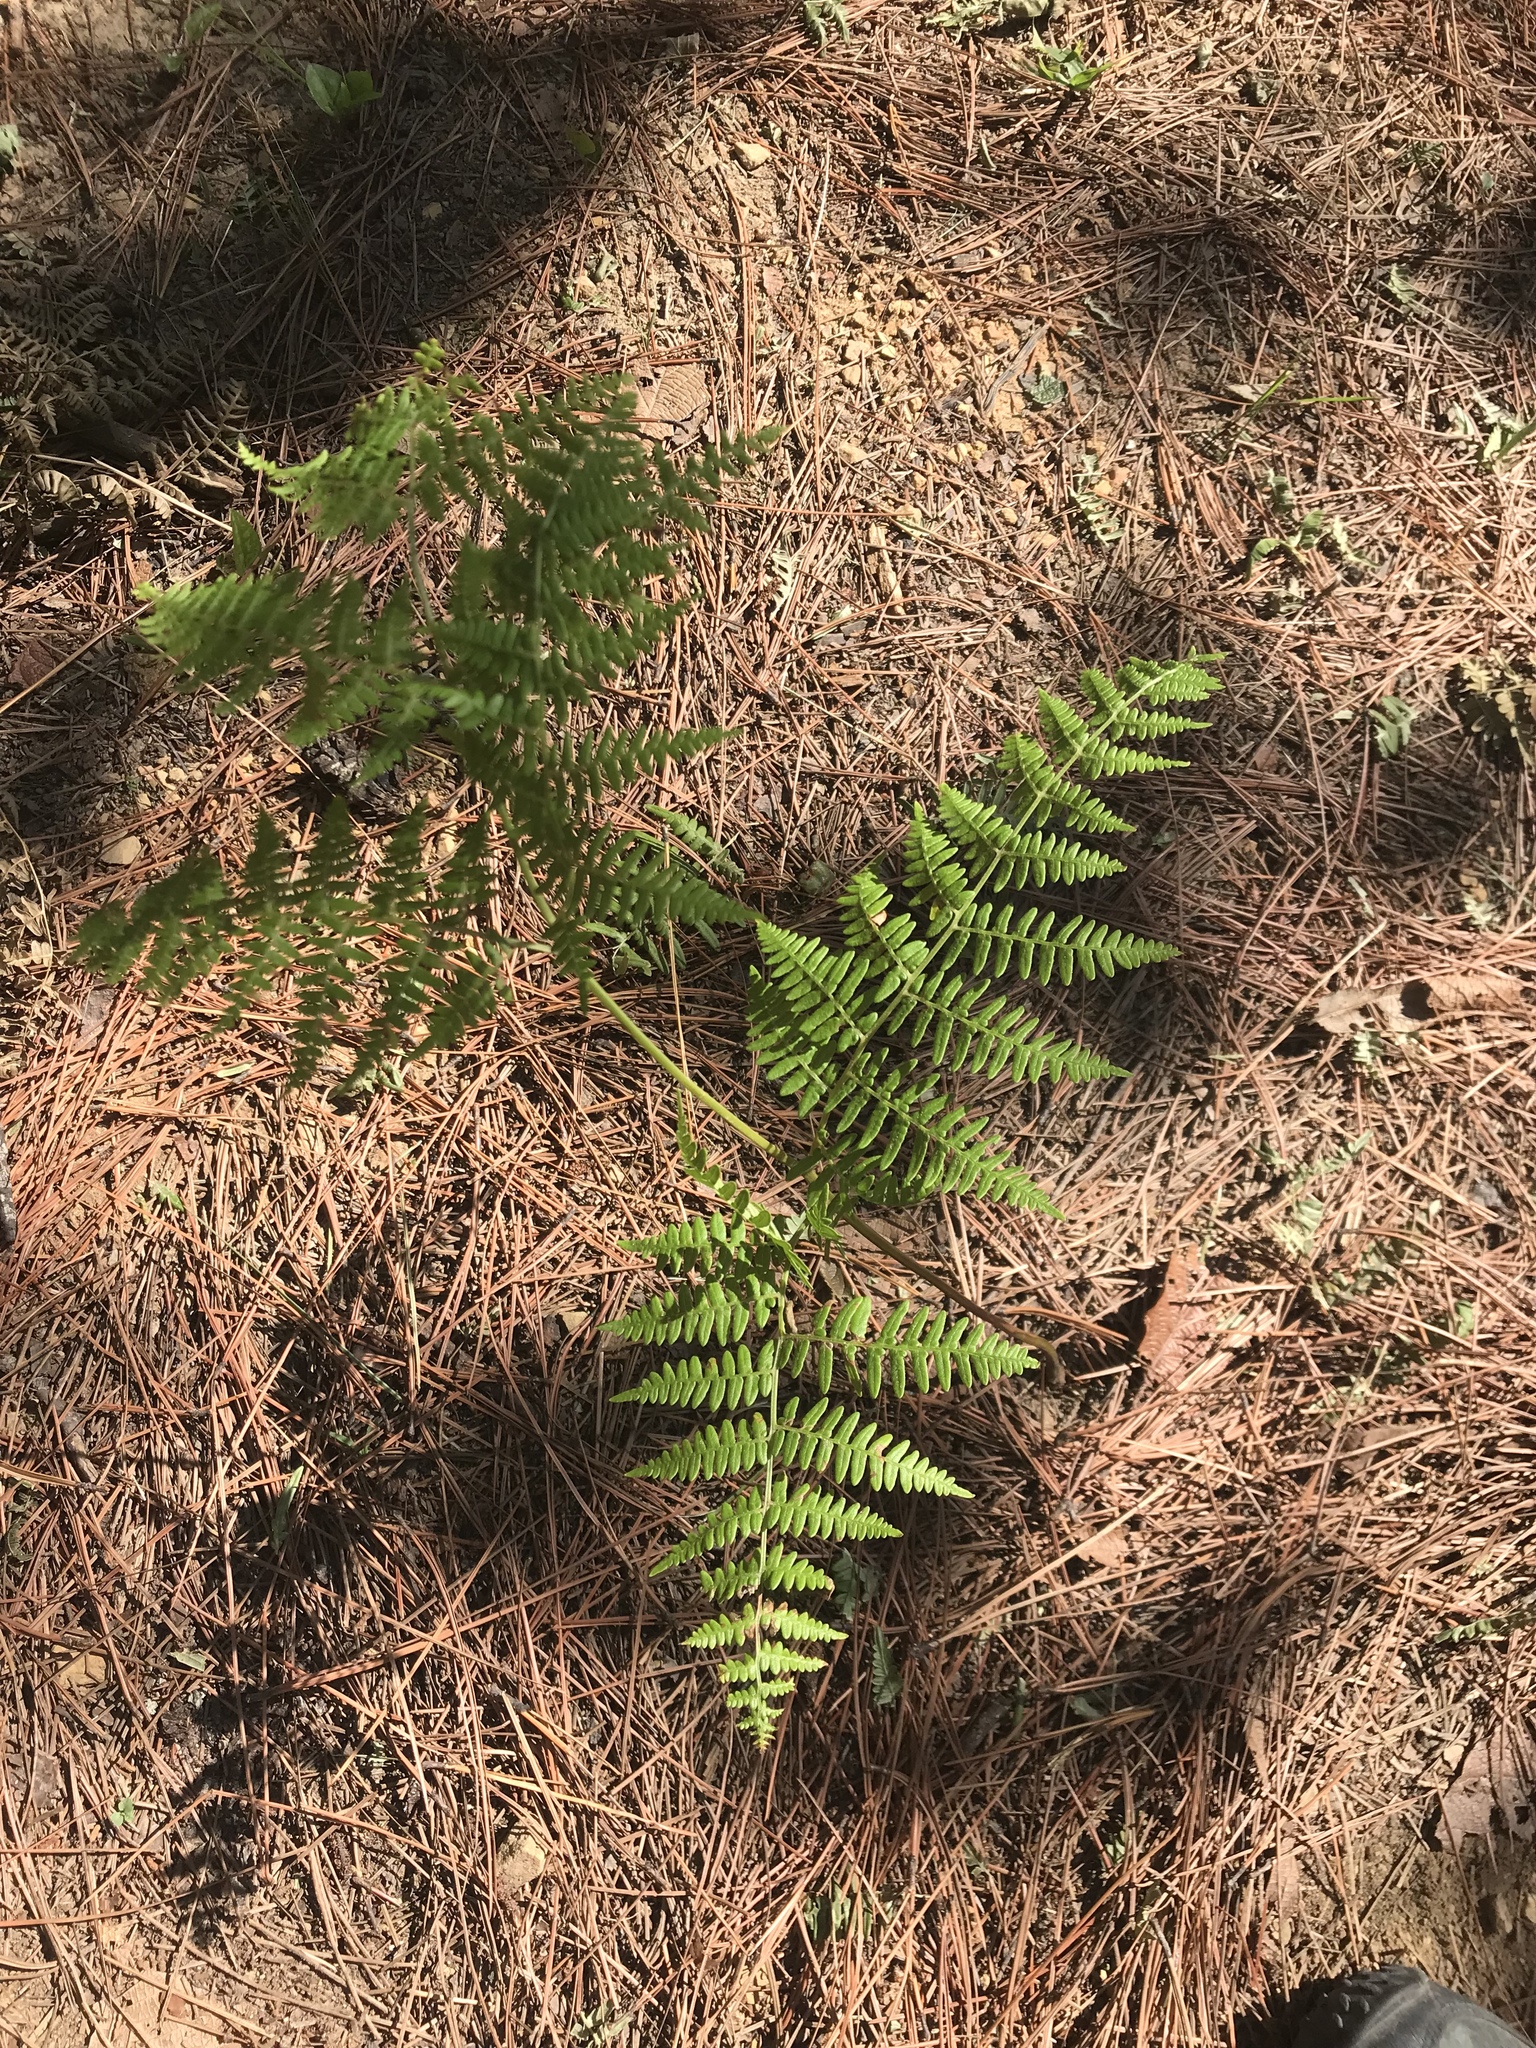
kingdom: Plantae
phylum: Tracheophyta
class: Polypodiopsida
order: Polypodiales
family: Dennstaedtiaceae
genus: Pteridium
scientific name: Pteridium aquilinum
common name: Bracken
